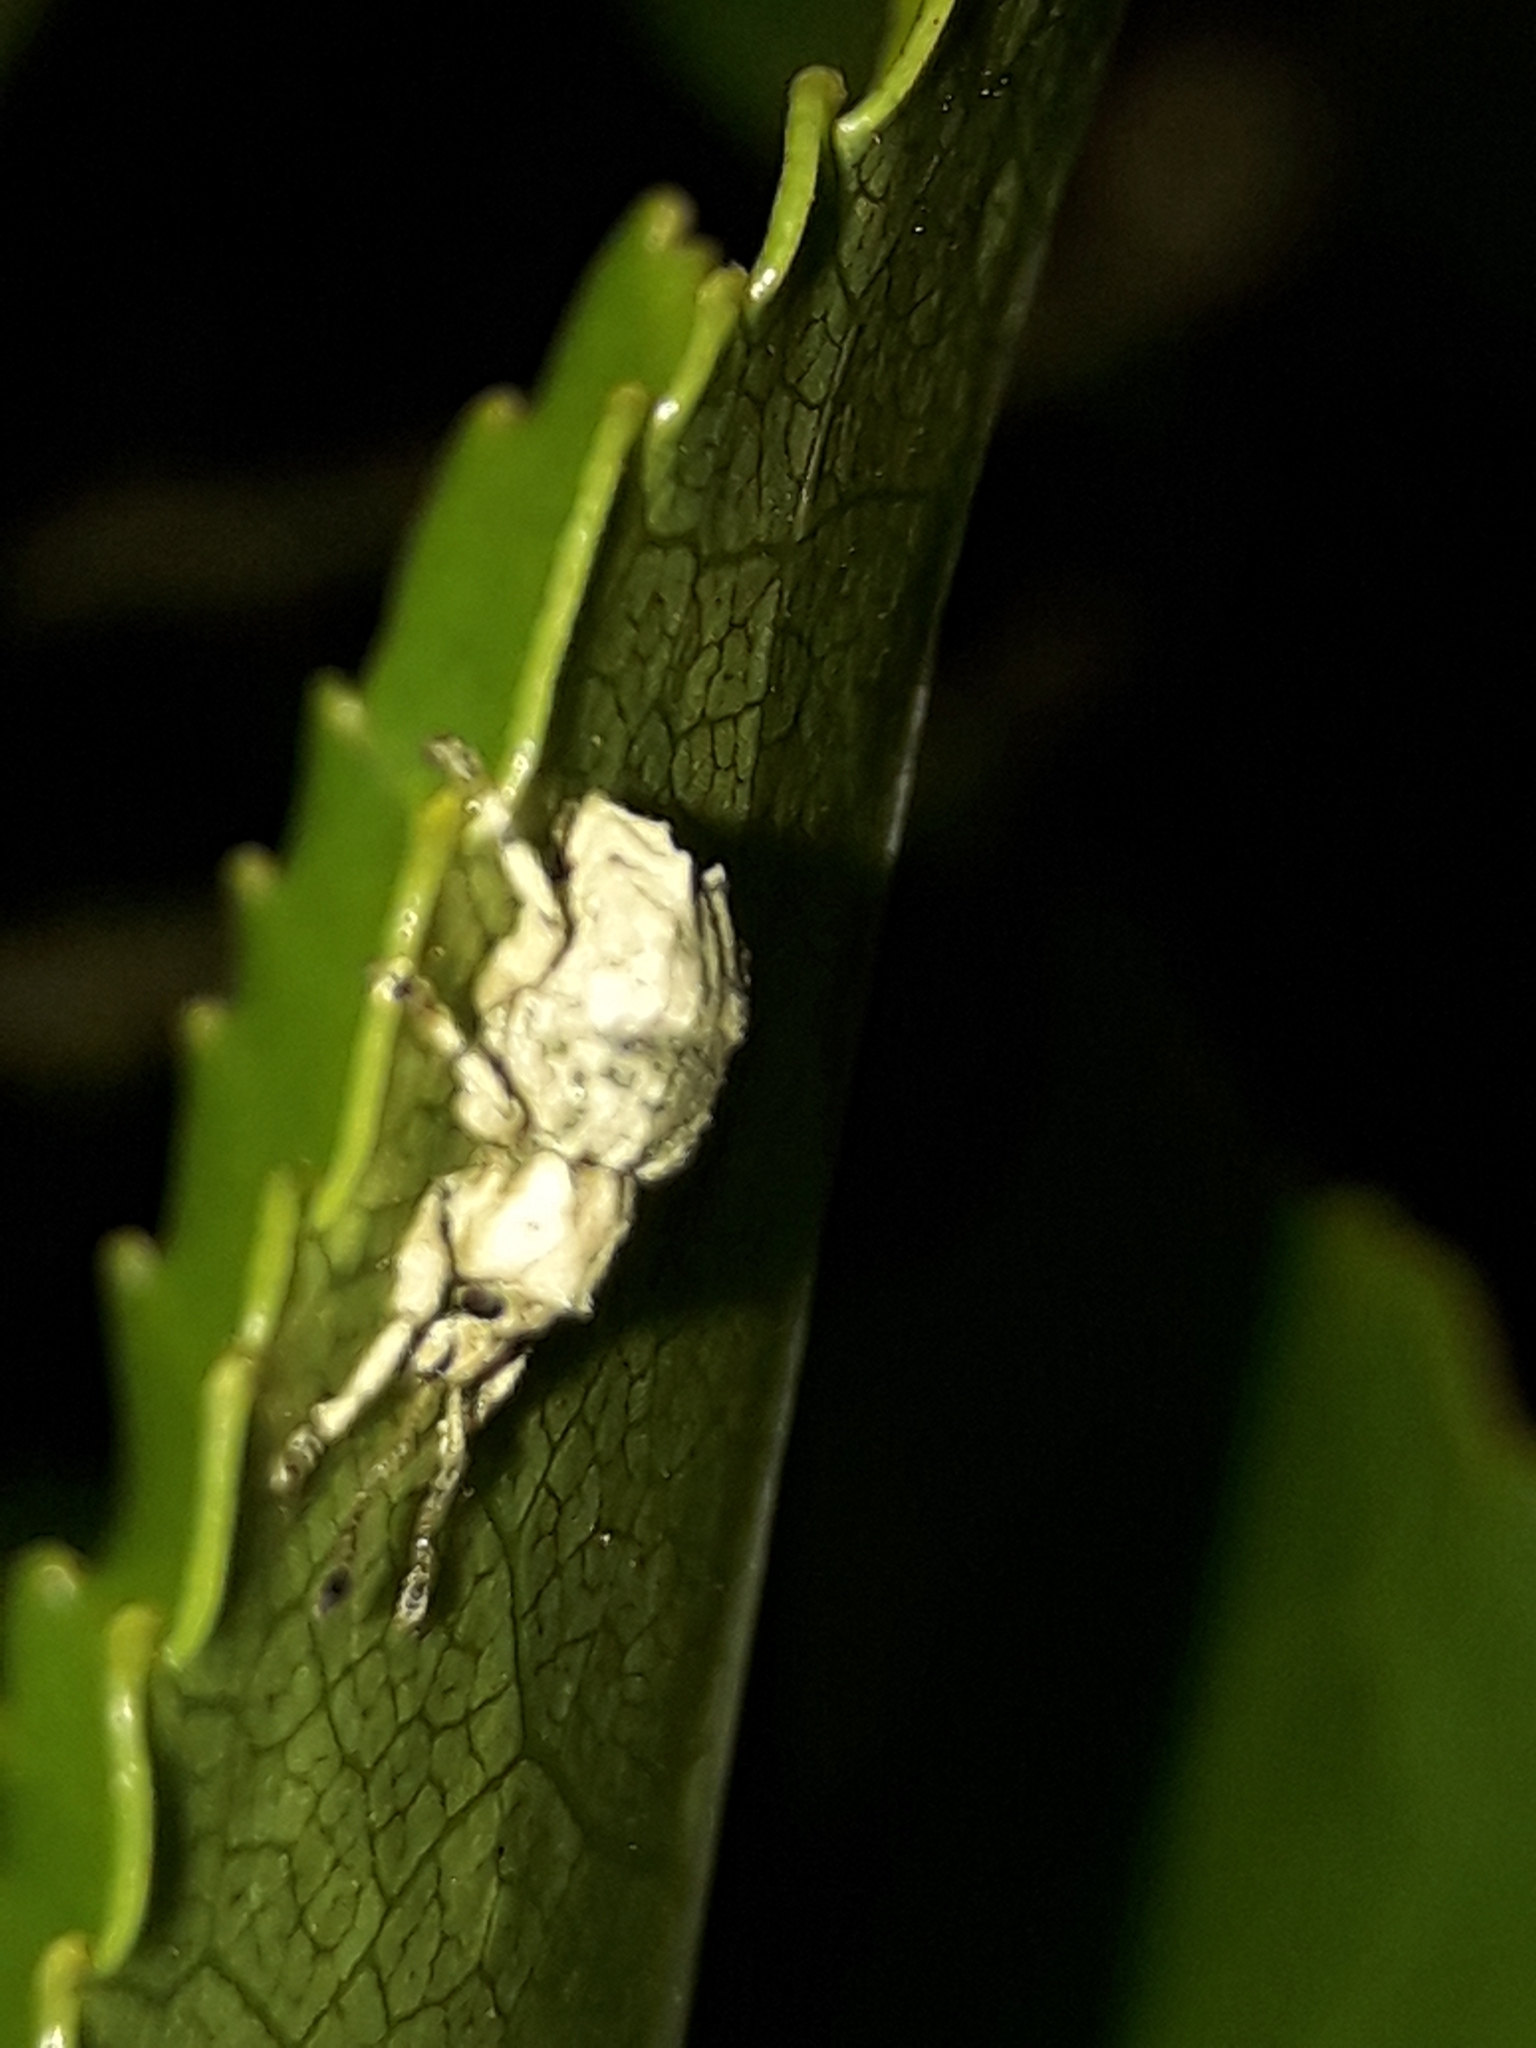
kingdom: Animalia
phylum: Arthropoda
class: Insecta
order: Coleoptera
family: Curculionidae
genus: Brachyolus
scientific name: Brachyolus punctatus
